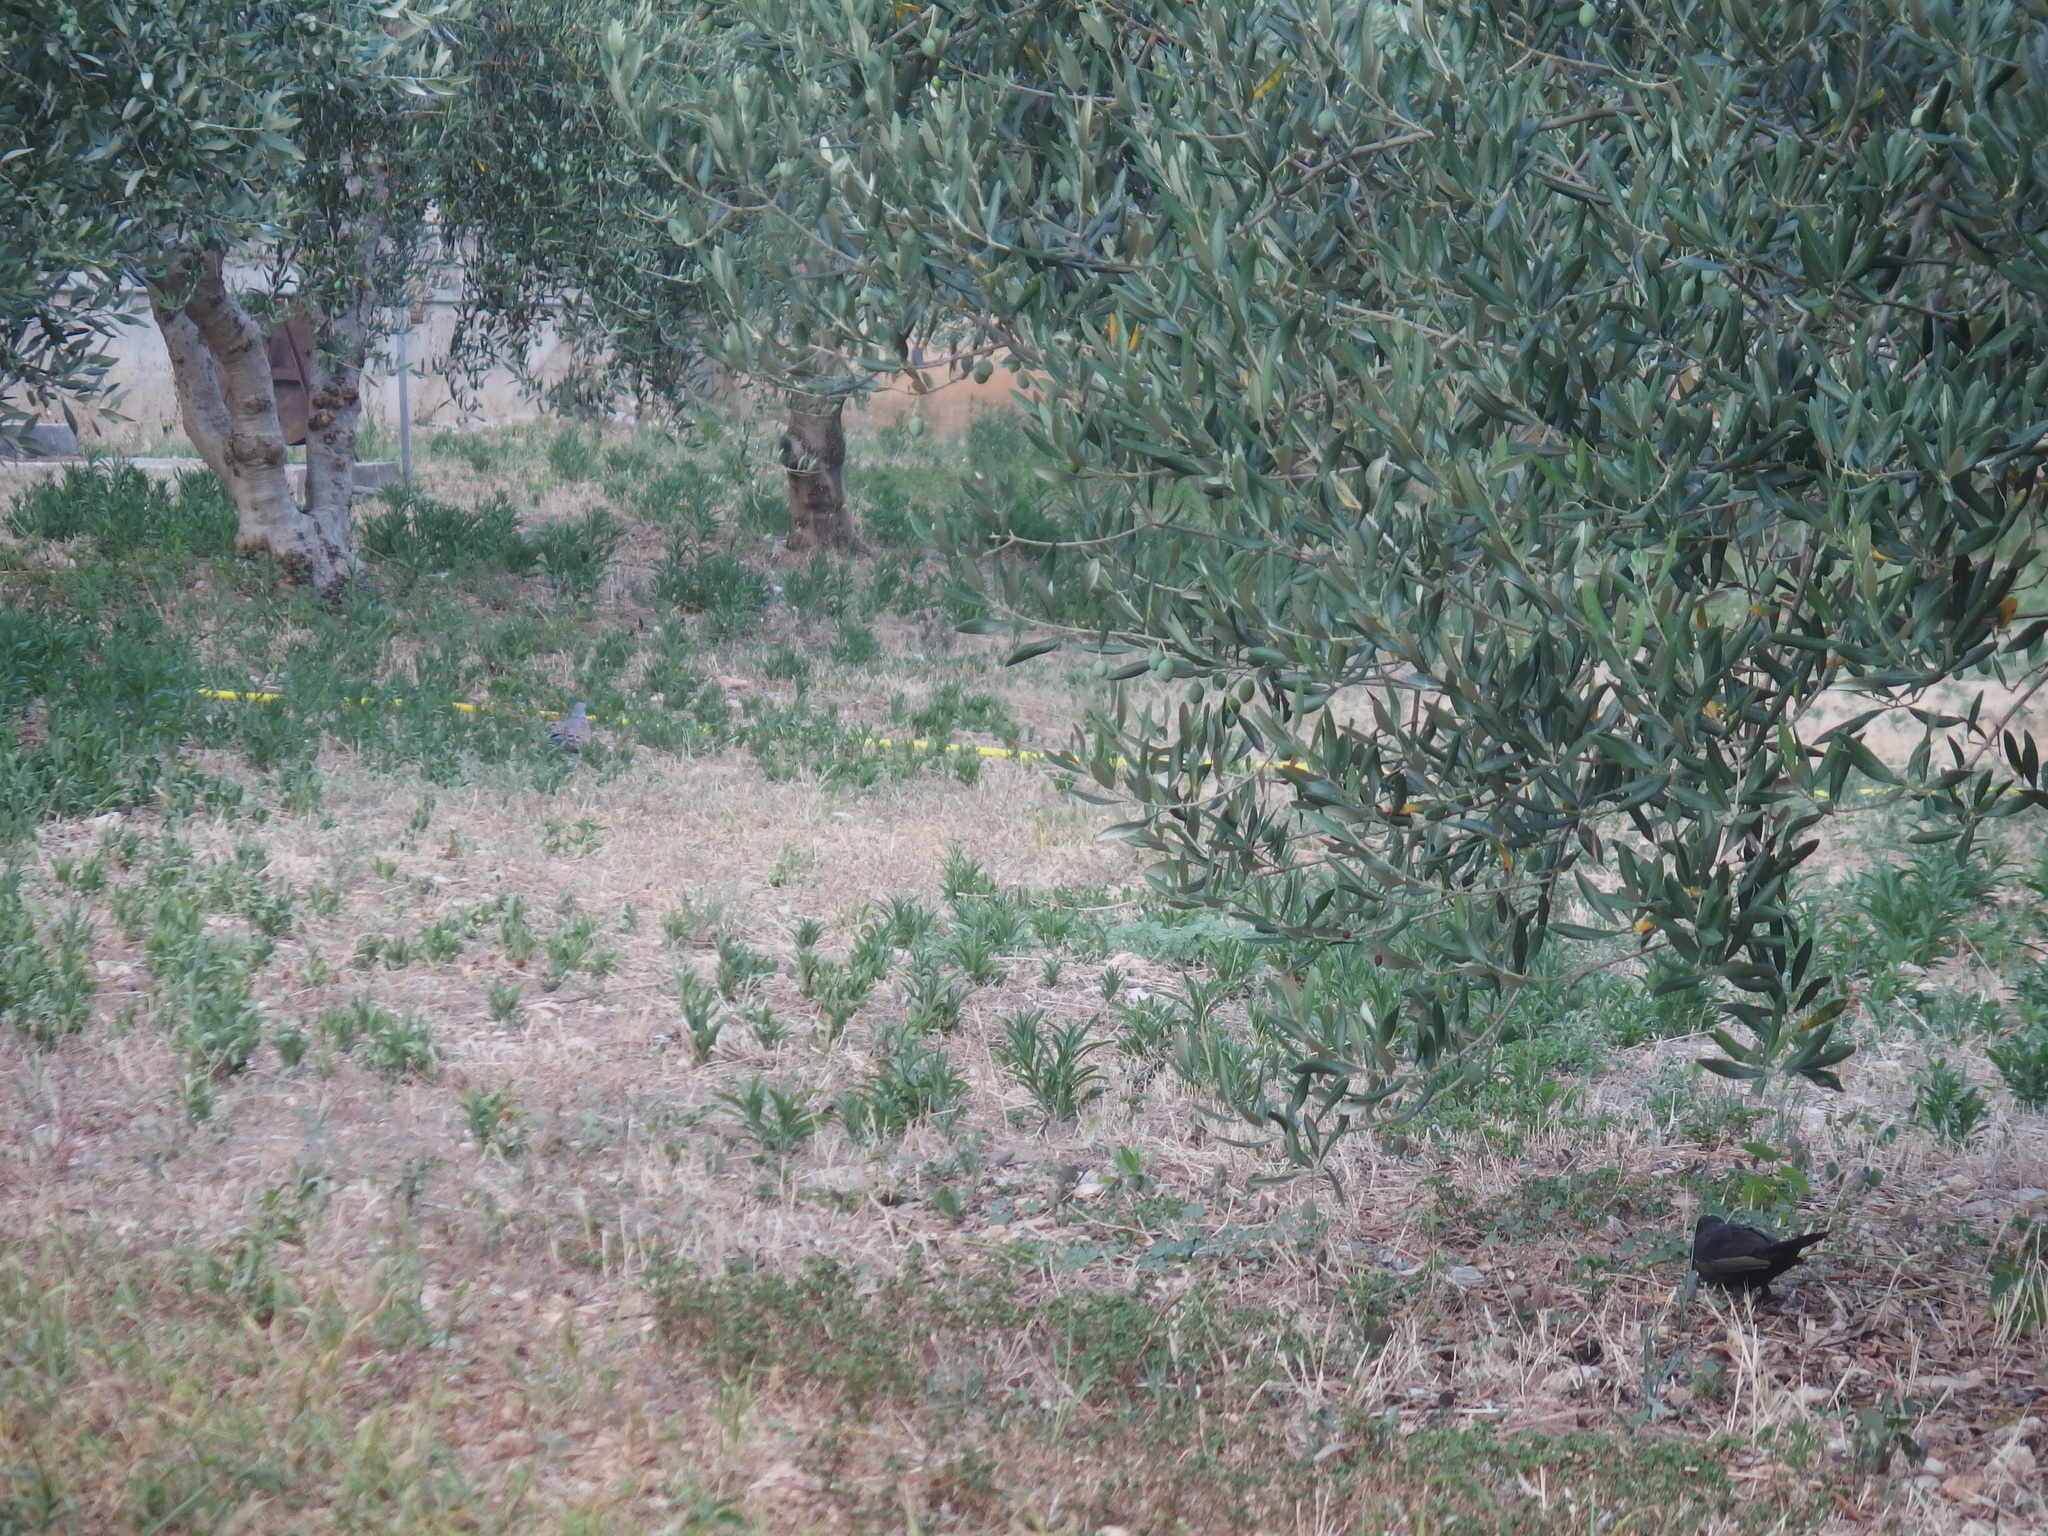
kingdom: Animalia
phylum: Chordata
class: Aves
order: Passeriformes
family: Turdidae
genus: Turdus
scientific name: Turdus merula
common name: Common blackbird
